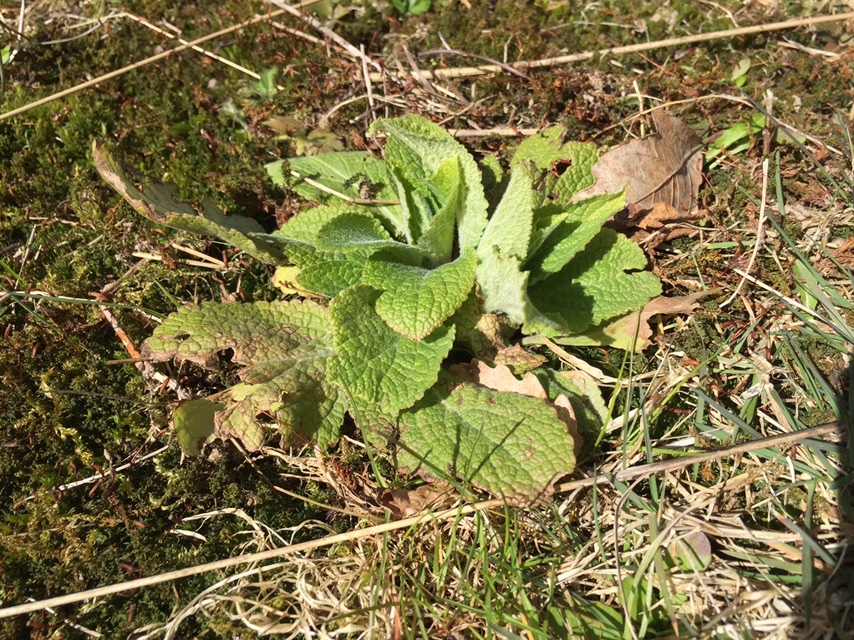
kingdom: Plantae
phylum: Tracheophyta
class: Magnoliopsida
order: Lamiales
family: Plantaginaceae
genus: Digitalis
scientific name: Digitalis purpurea
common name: Foxglove
